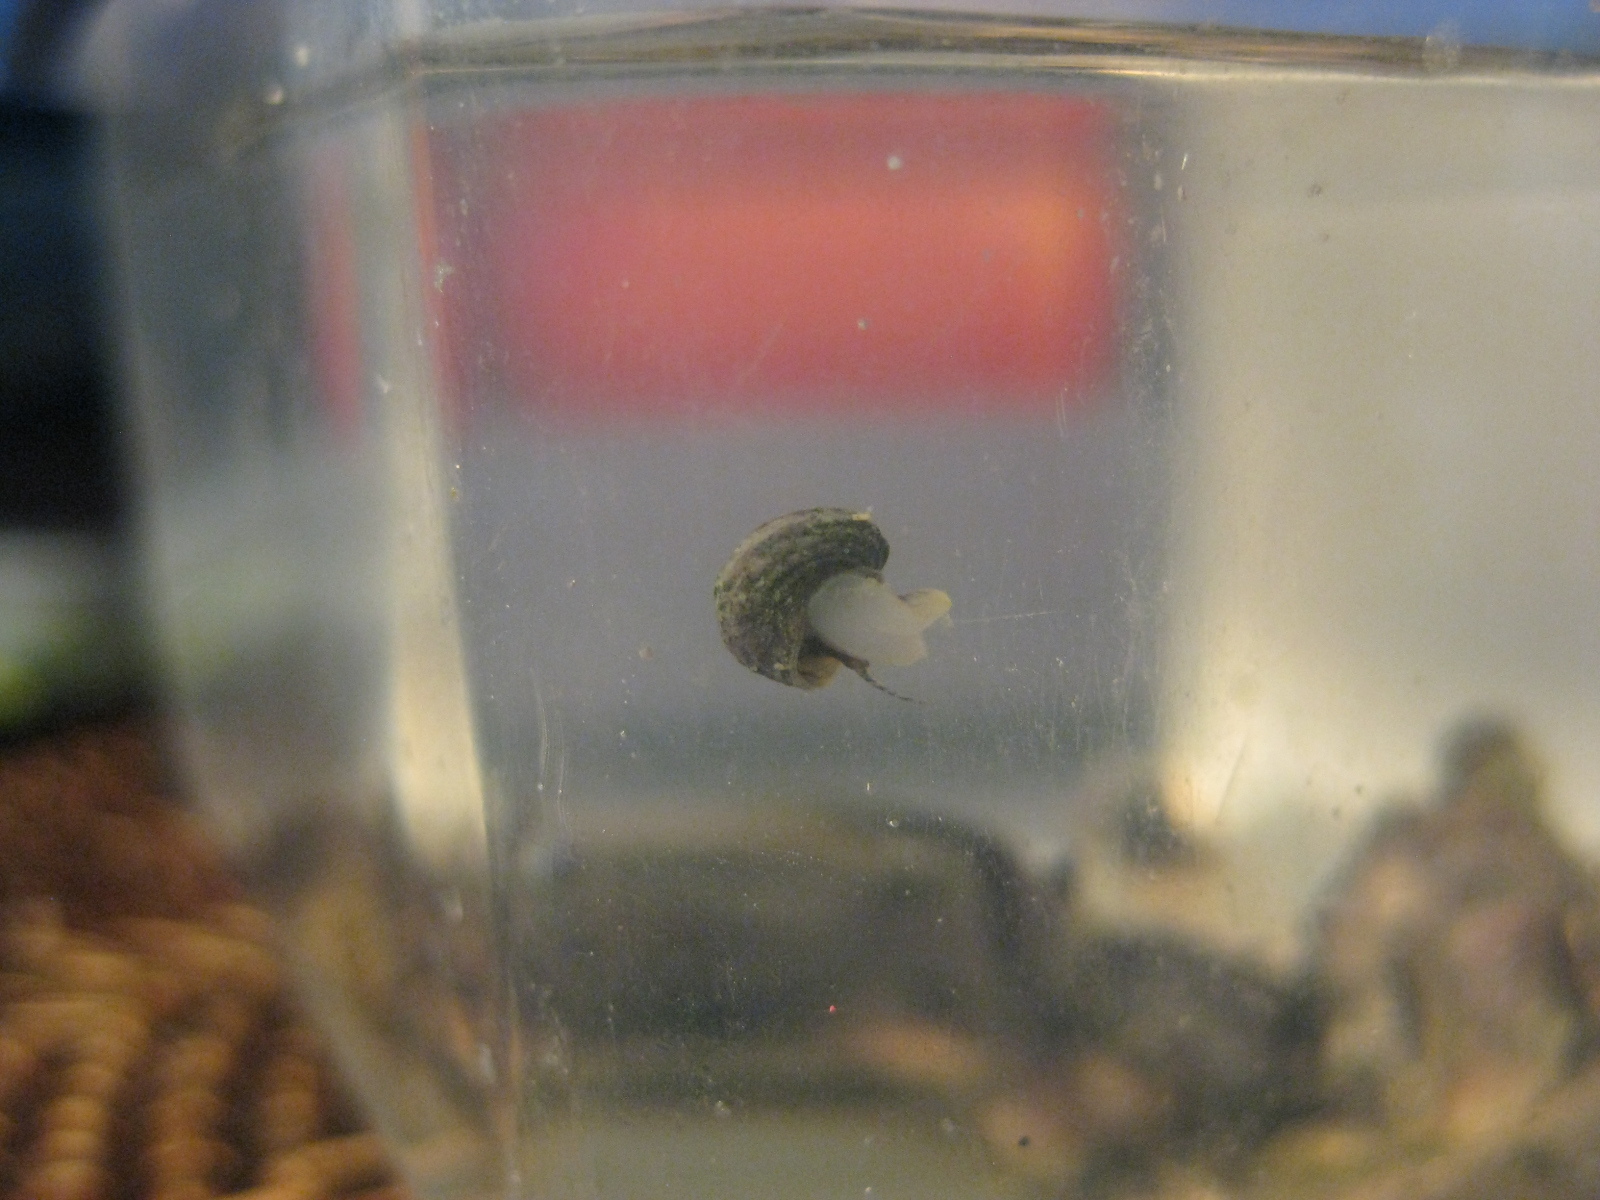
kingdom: Animalia
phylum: Mollusca
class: Gastropoda
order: Littorinimorpha
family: Littorinidae
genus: Risellopsis
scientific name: Risellopsis varia
